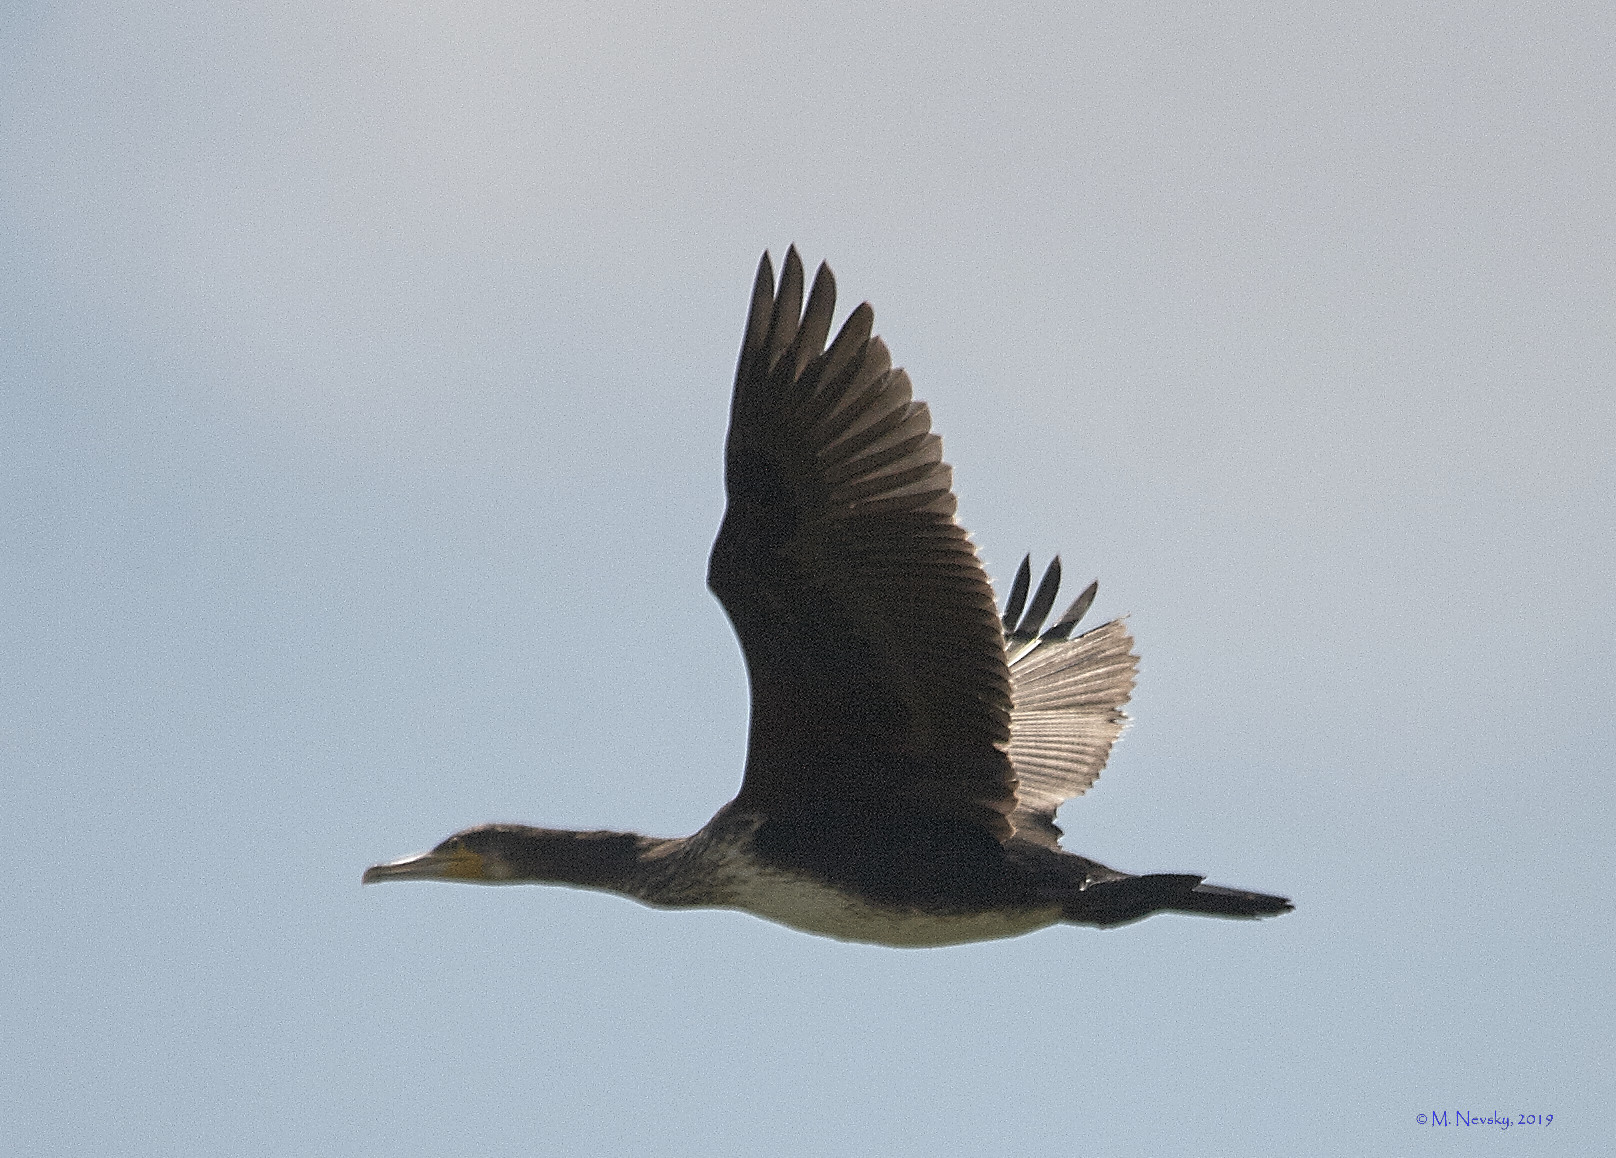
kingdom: Animalia
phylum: Chordata
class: Aves
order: Suliformes
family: Phalacrocoracidae
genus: Phalacrocorax
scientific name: Phalacrocorax carbo
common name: Great cormorant
